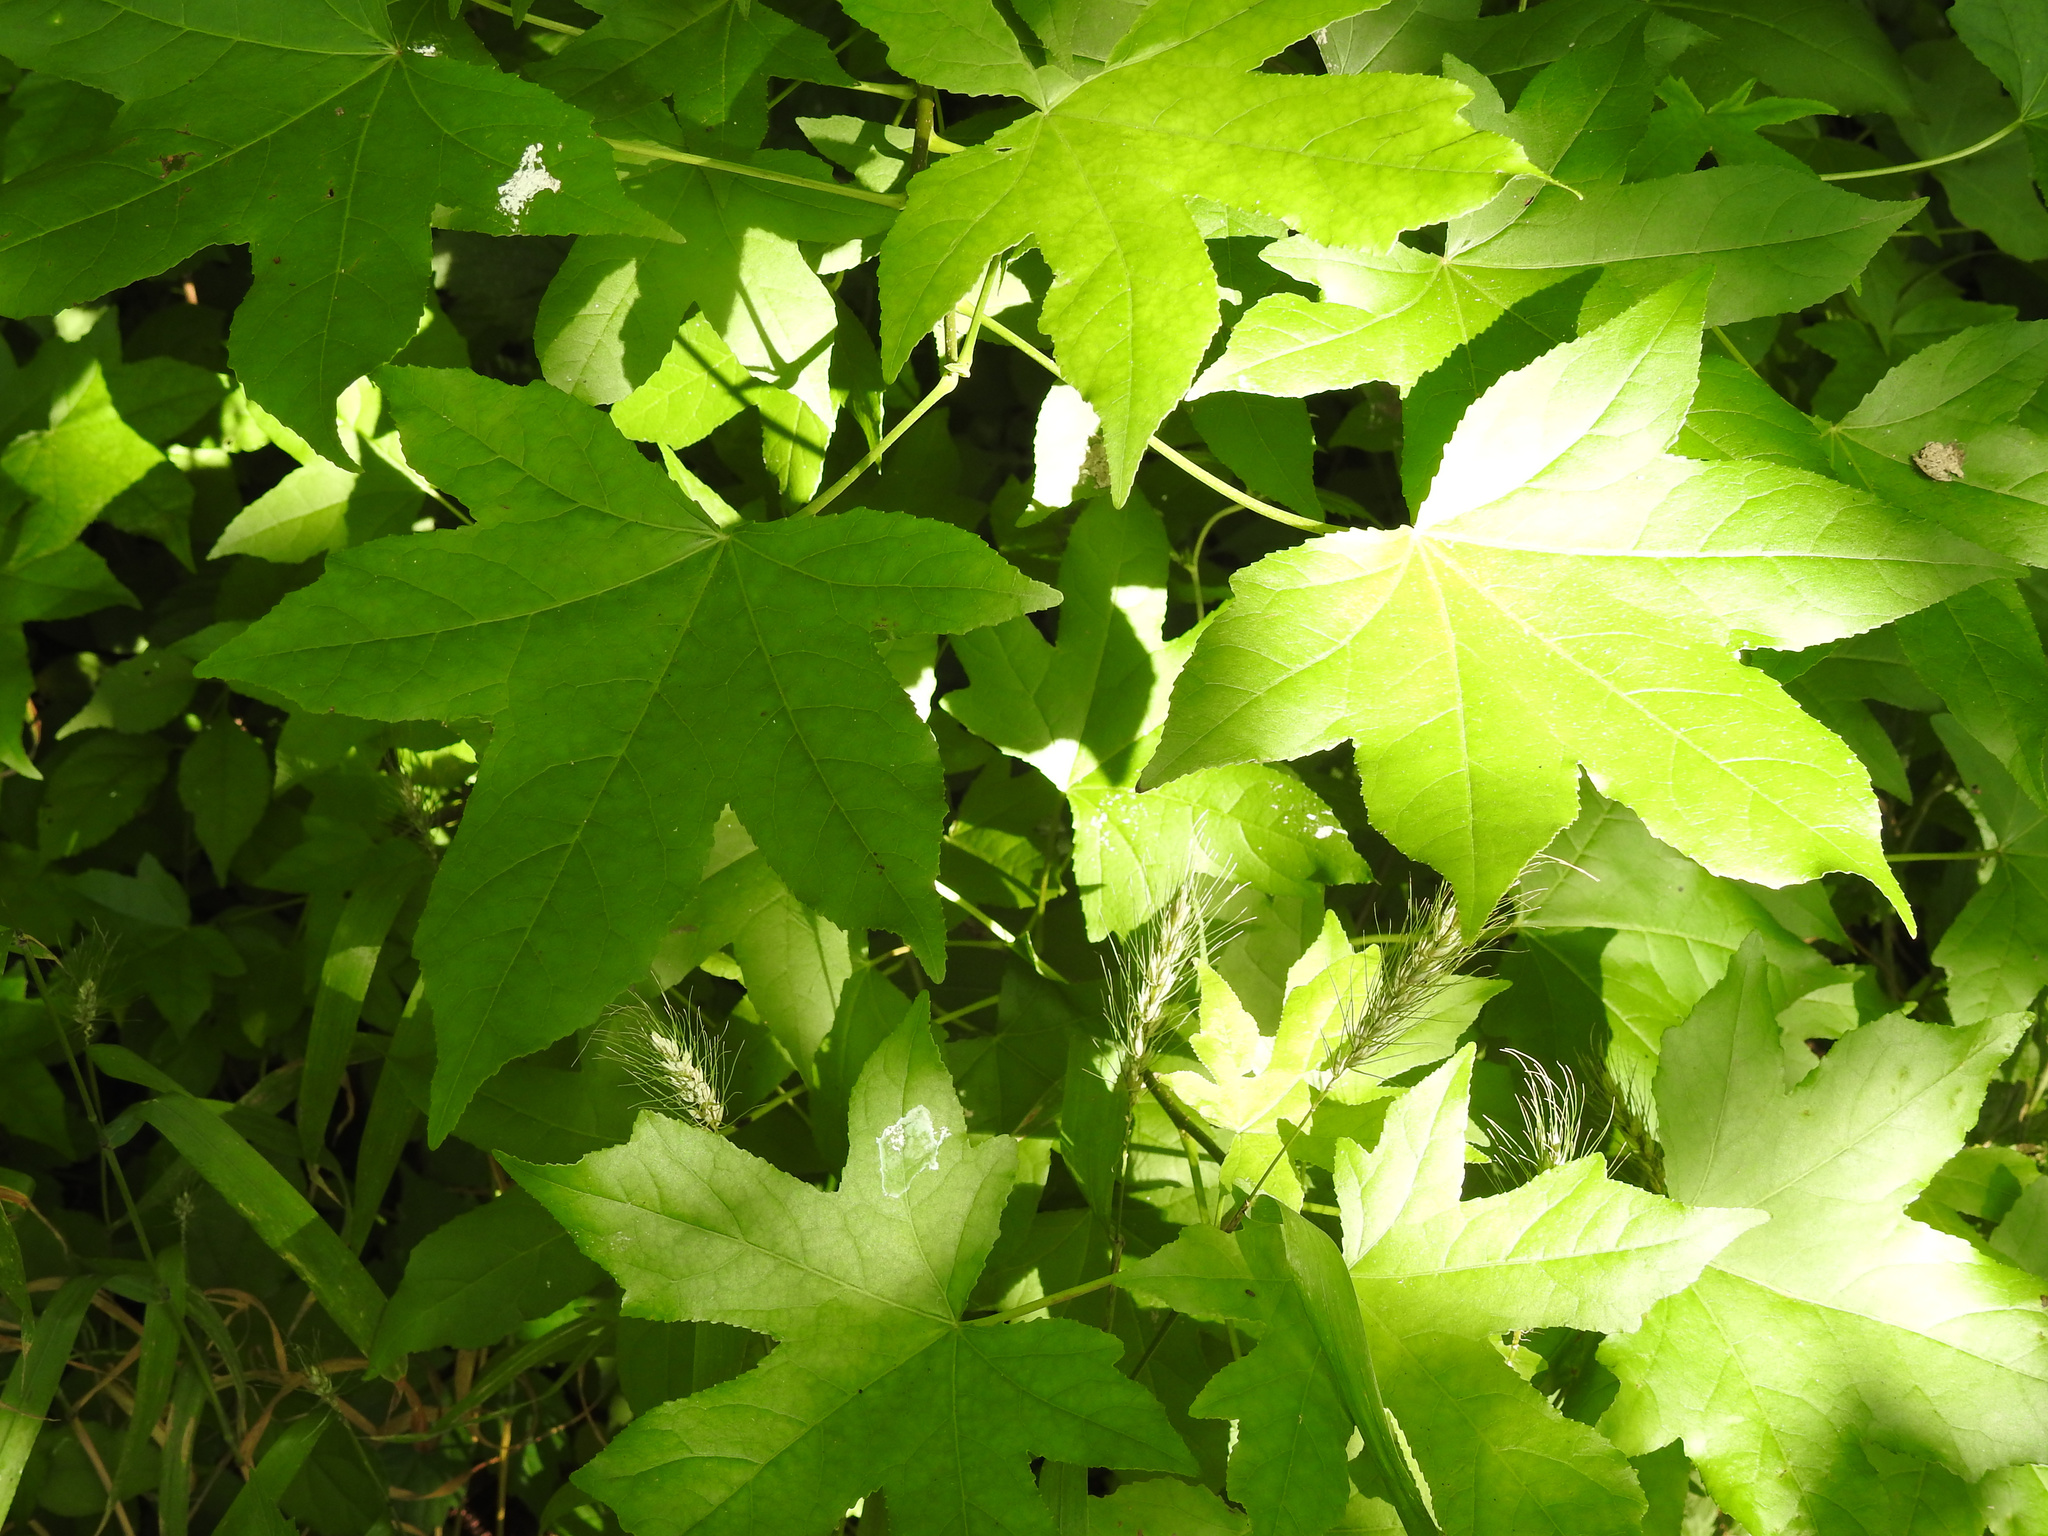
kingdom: Plantae
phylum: Tracheophyta
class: Magnoliopsida
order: Saxifragales
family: Altingiaceae
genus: Liquidambar
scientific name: Liquidambar styraciflua
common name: Sweet gum
